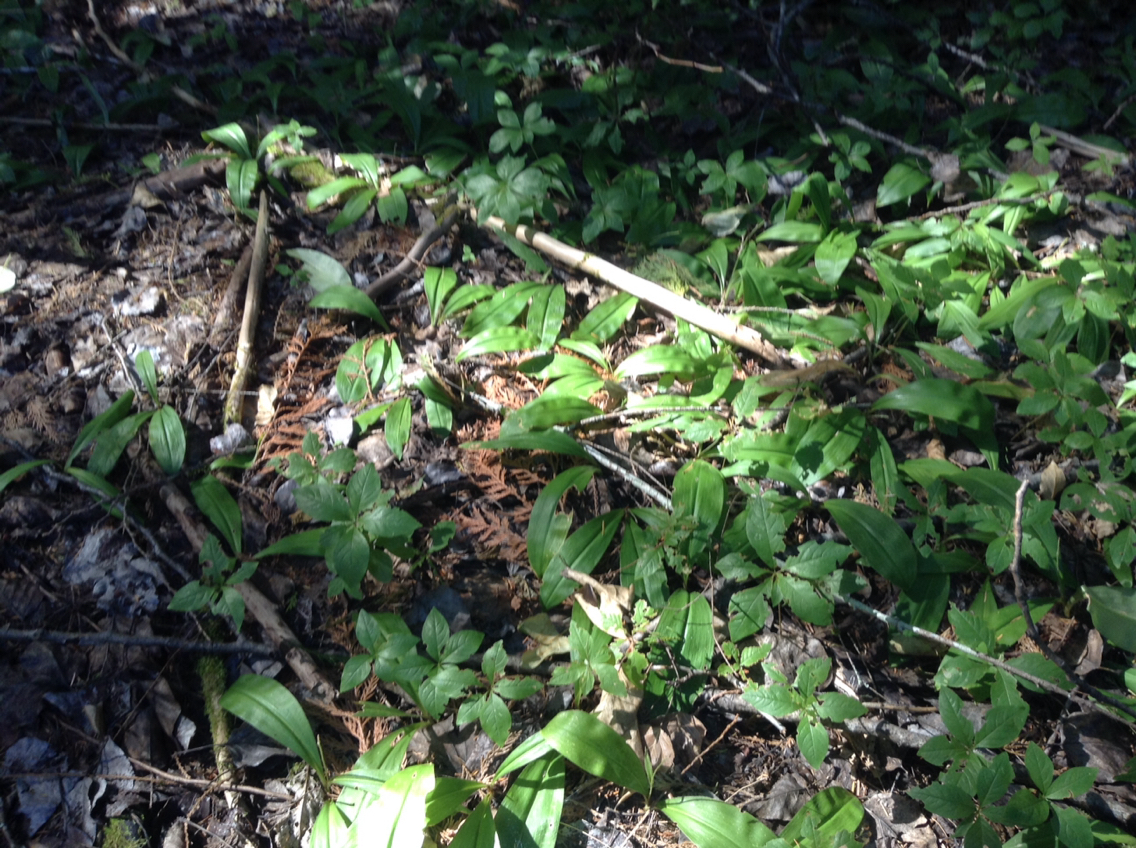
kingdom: Plantae
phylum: Tracheophyta
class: Liliopsida
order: Liliales
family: Liliaceae
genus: Clintonia
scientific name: Clintonia uniflora
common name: Queen's cup
